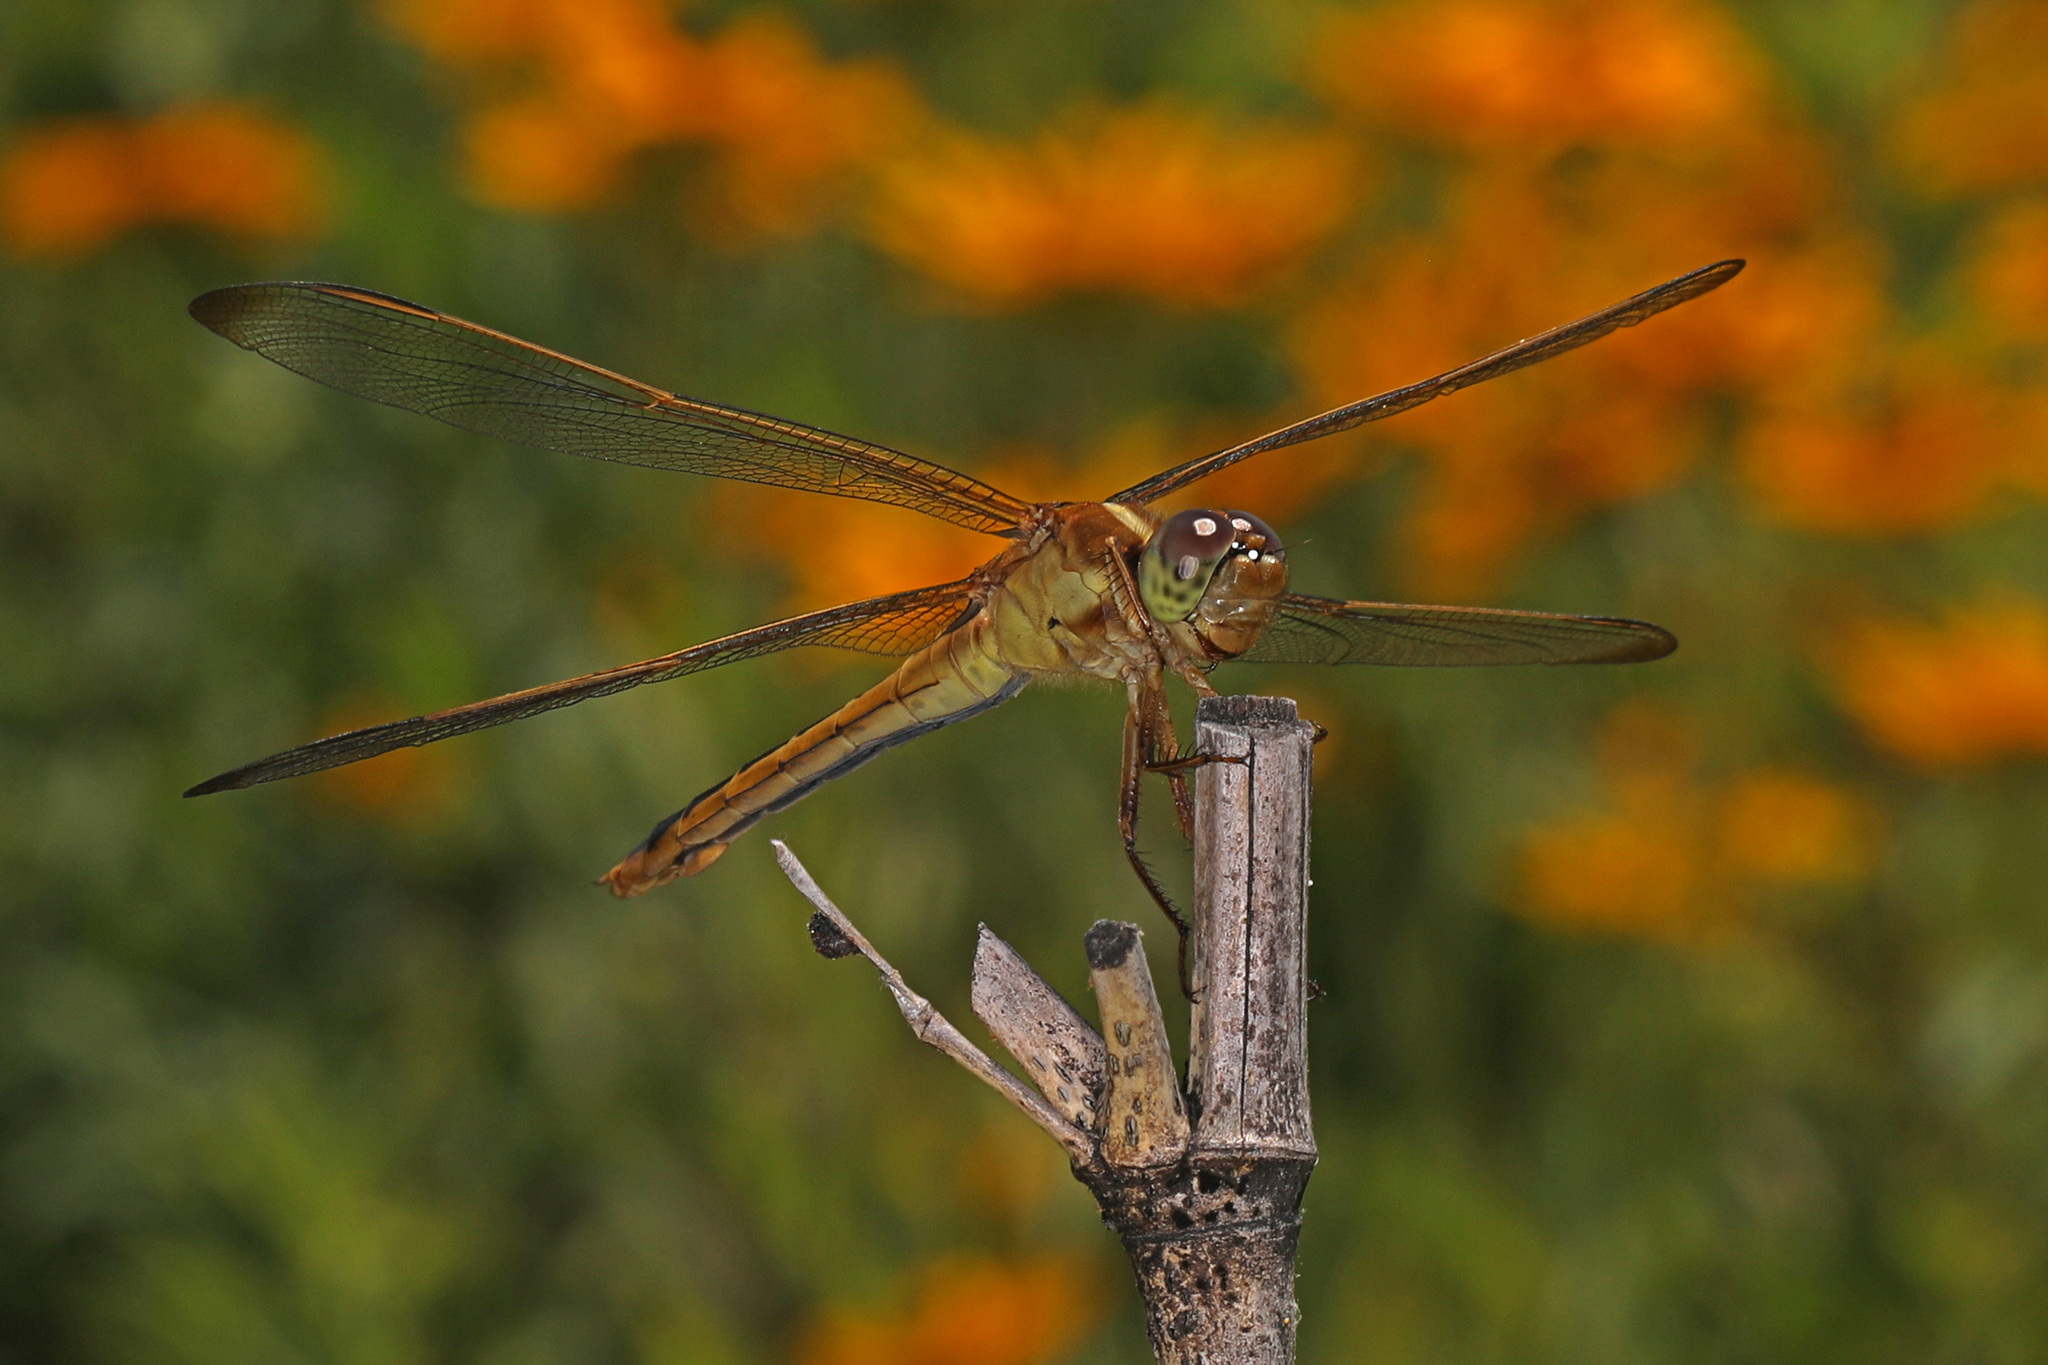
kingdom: Animalia
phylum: Arthropoda
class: Insecta
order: Odonata
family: Libellulidae
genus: Libellula
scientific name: Libellula needhami
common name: Needham's skimmer
